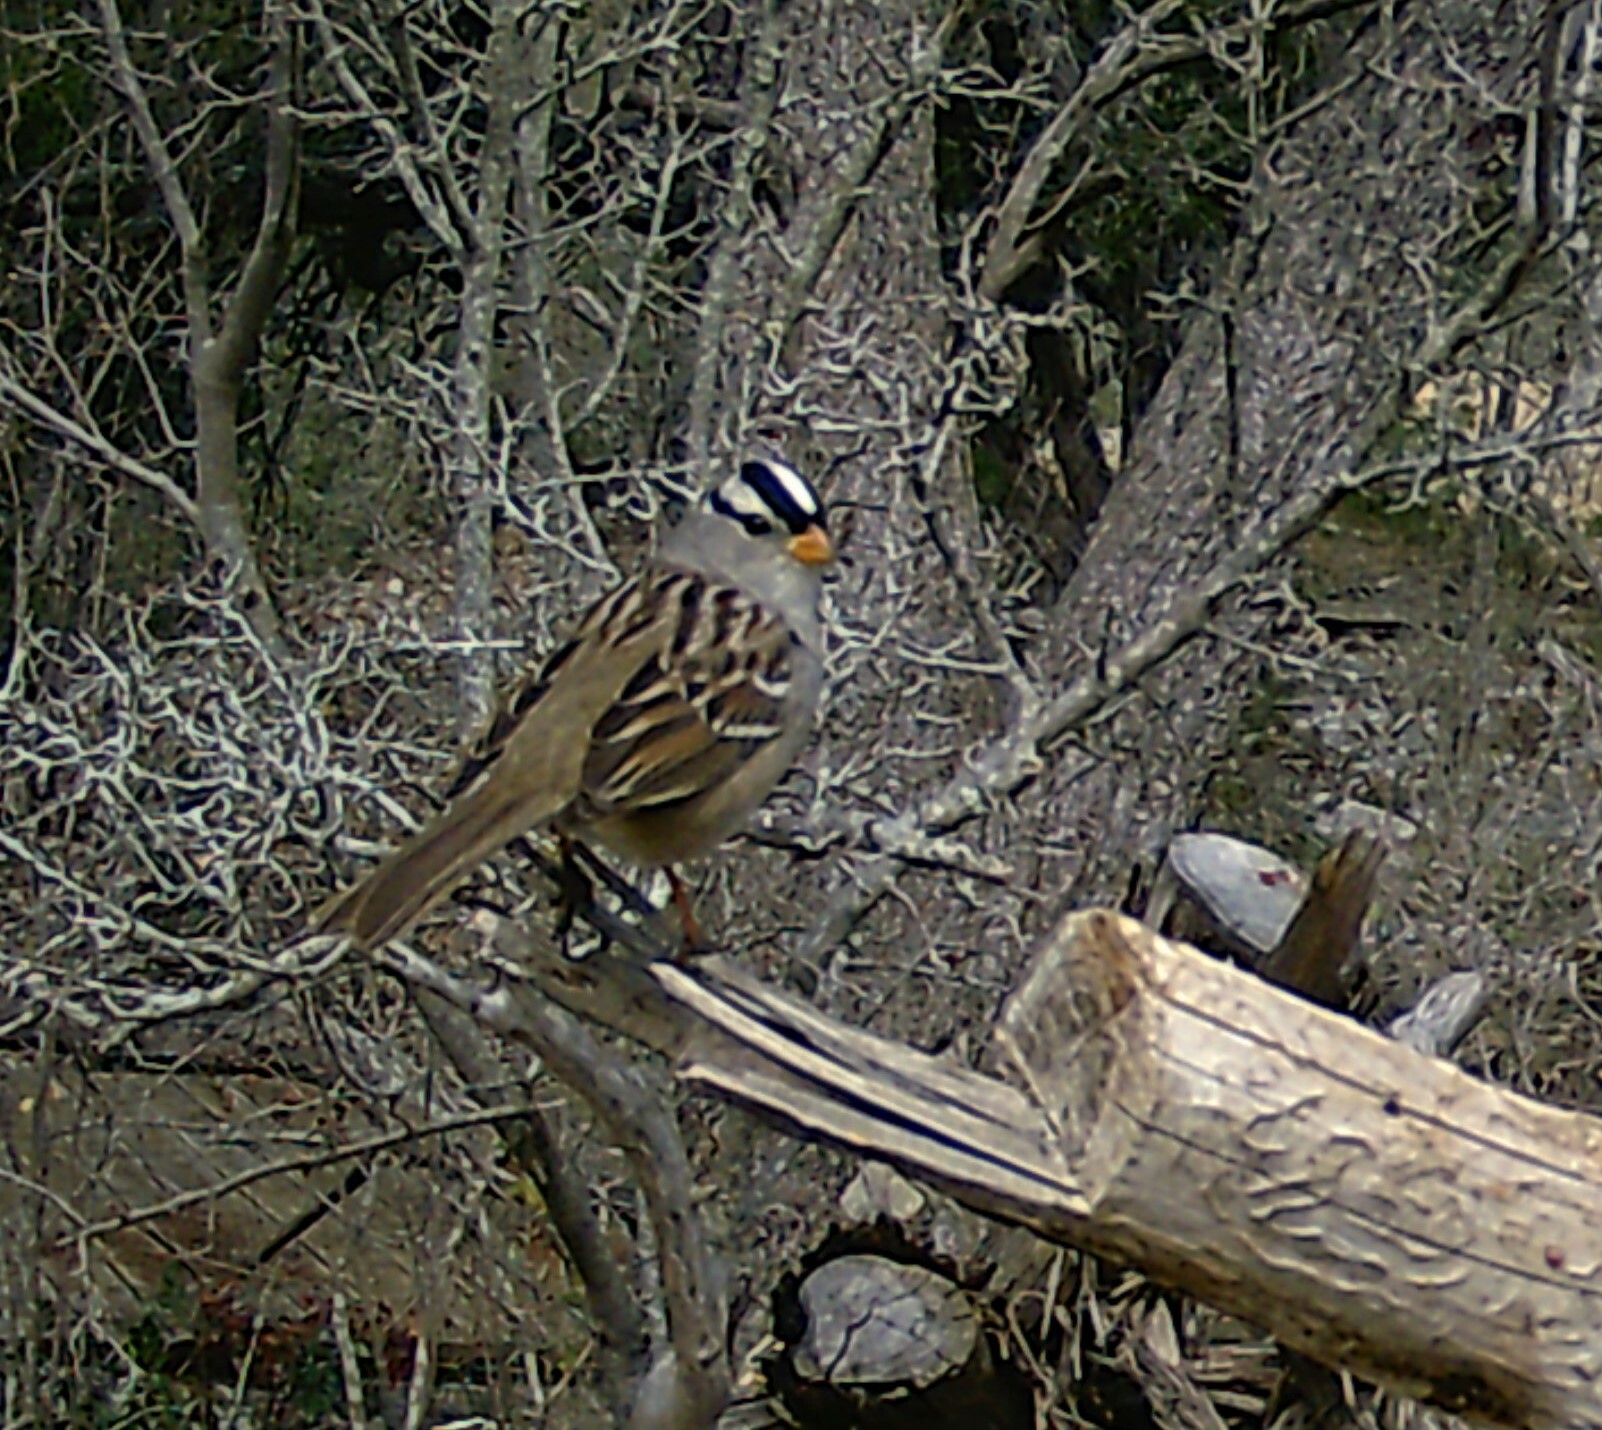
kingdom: Animalia
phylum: Chordata
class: Aves
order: Passeriformes
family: Passerellidae
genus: Zonotrichia
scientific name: Zonotrichia leucophrys
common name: White-crowned sparrow
